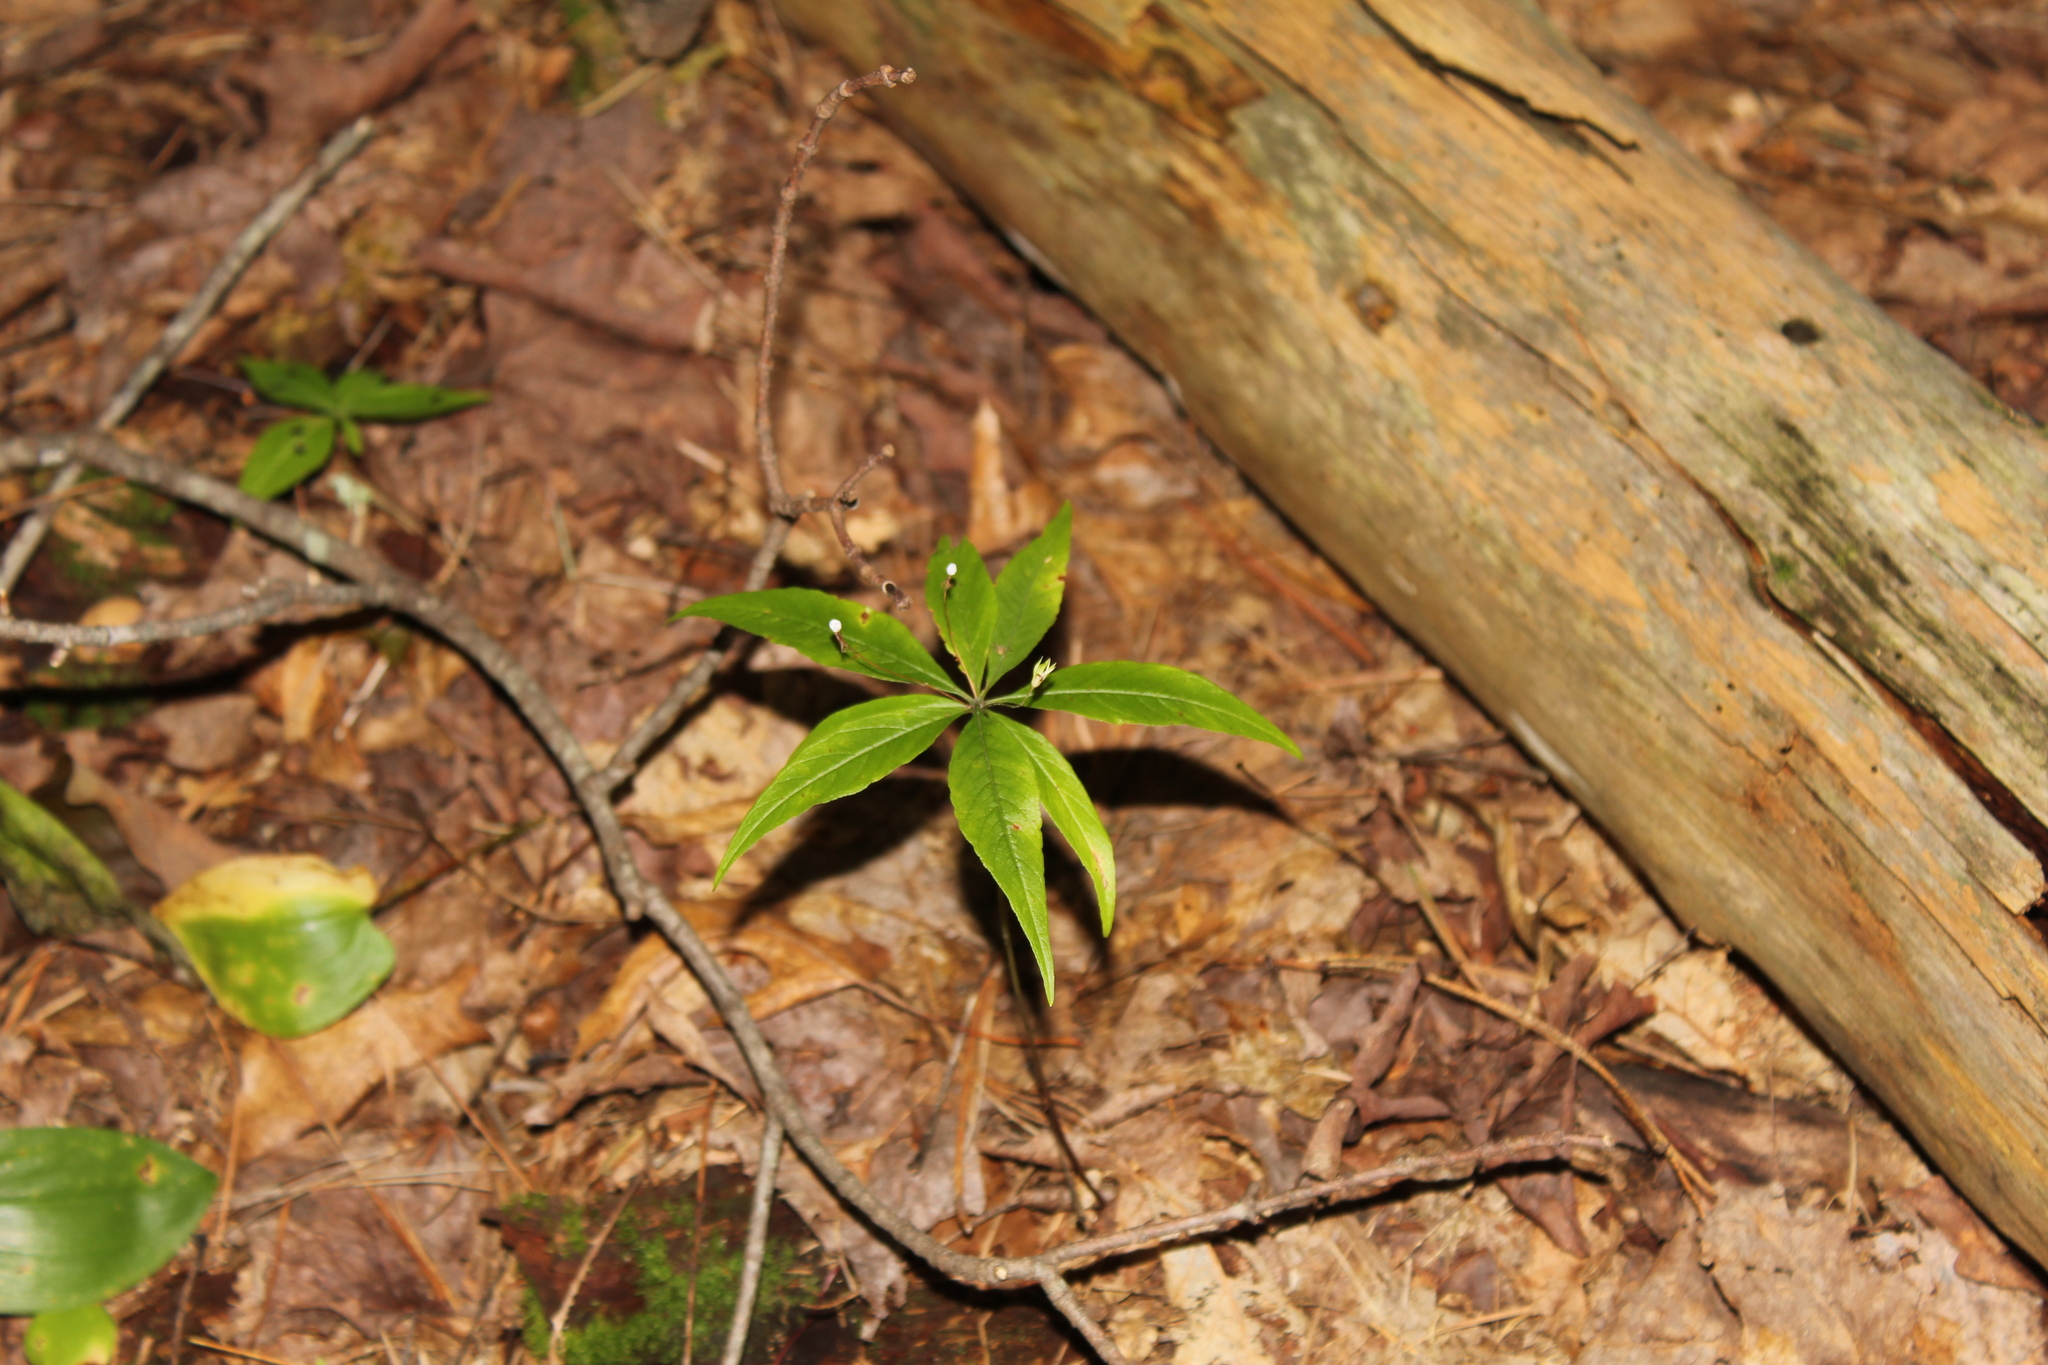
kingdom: Plantae
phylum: Tracheophyta
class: Magnoliopsida
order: Ericales
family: Primulaceae
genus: Lysimachia
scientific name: Lysimachia borealis
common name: American starflower
